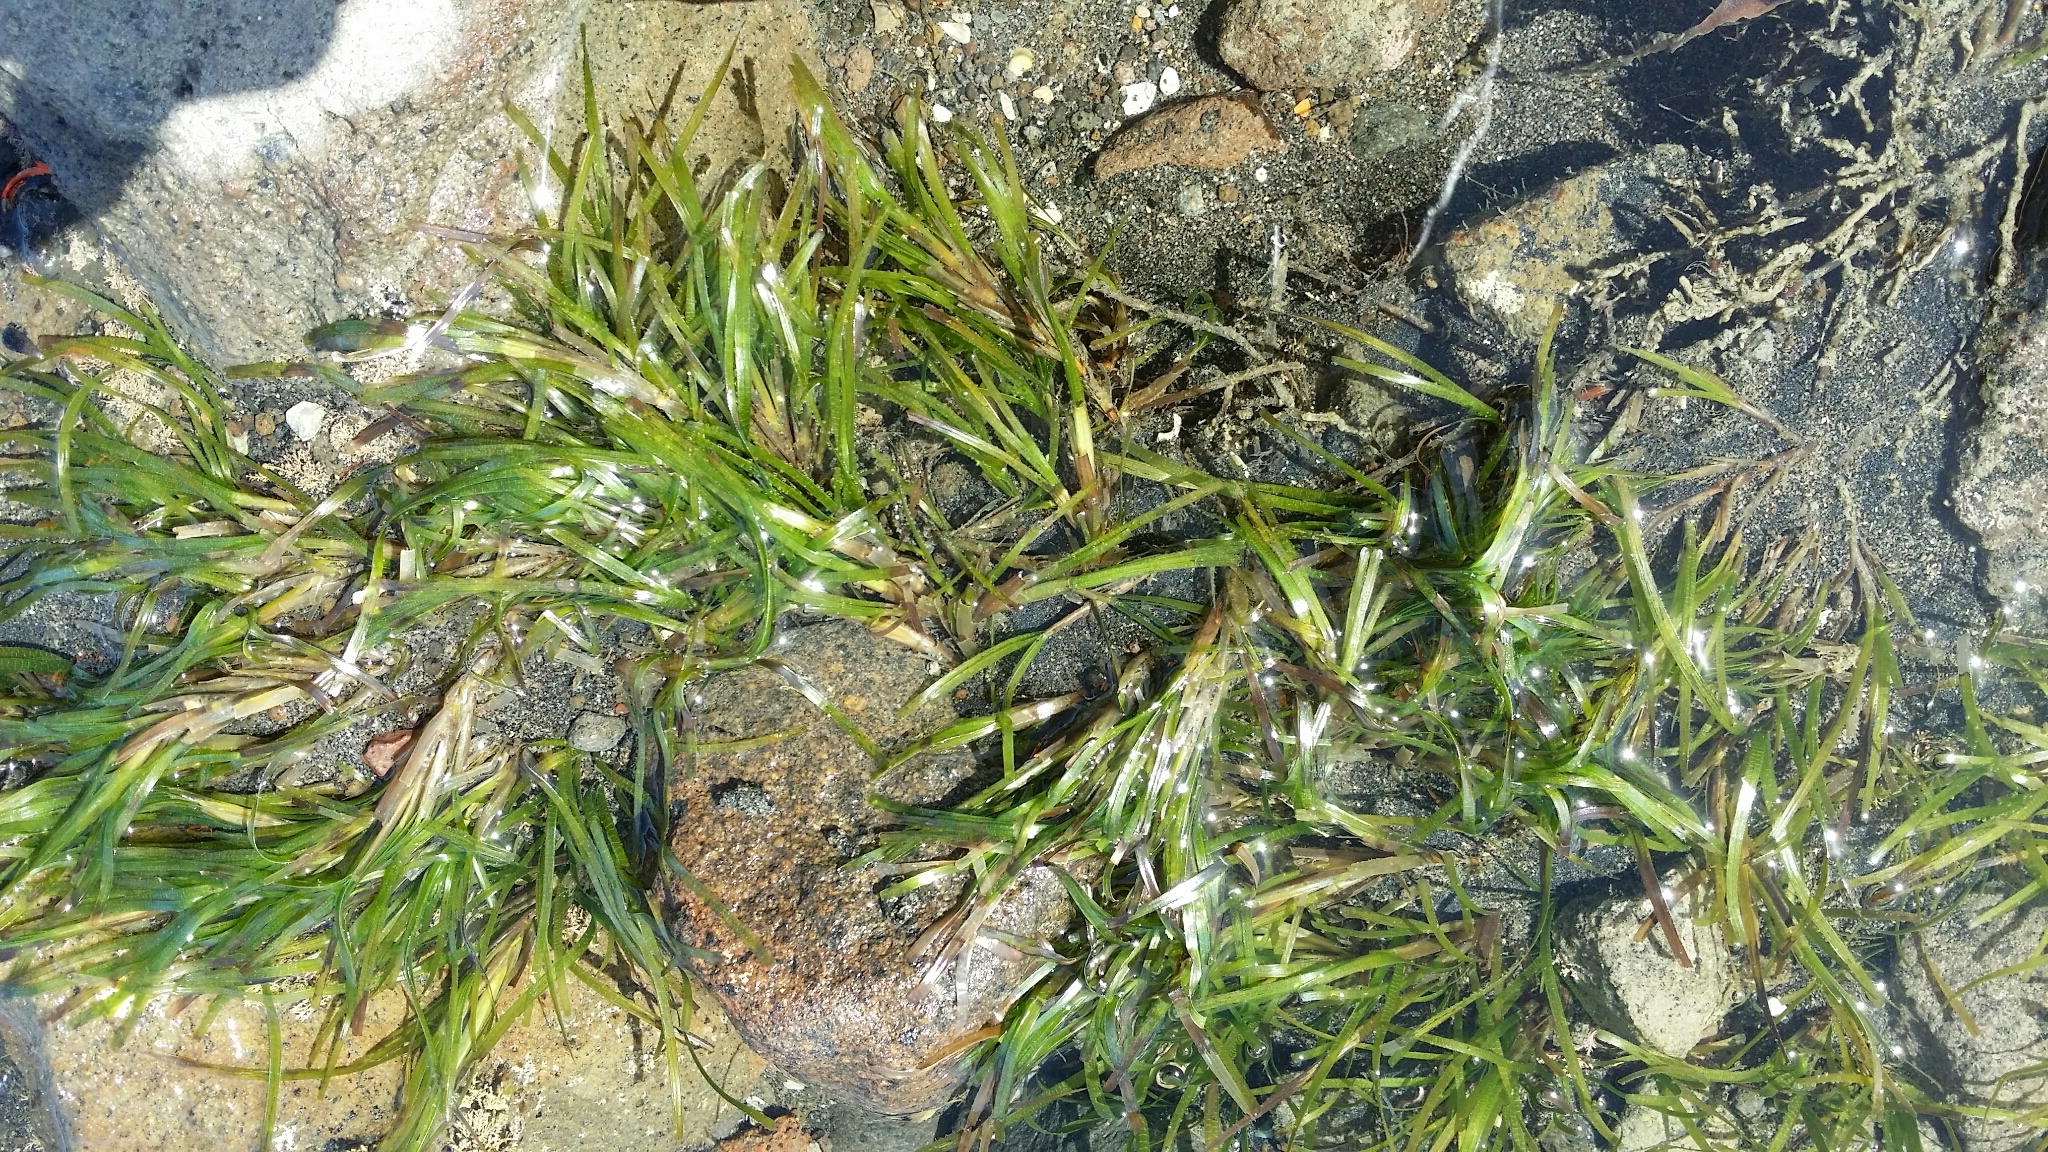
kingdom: Plantae
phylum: Tracheophyta
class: Liliopsida
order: Alismatales
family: Zosteraceae
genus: Zostera
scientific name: Zostera muelleri
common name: Species code: zc
